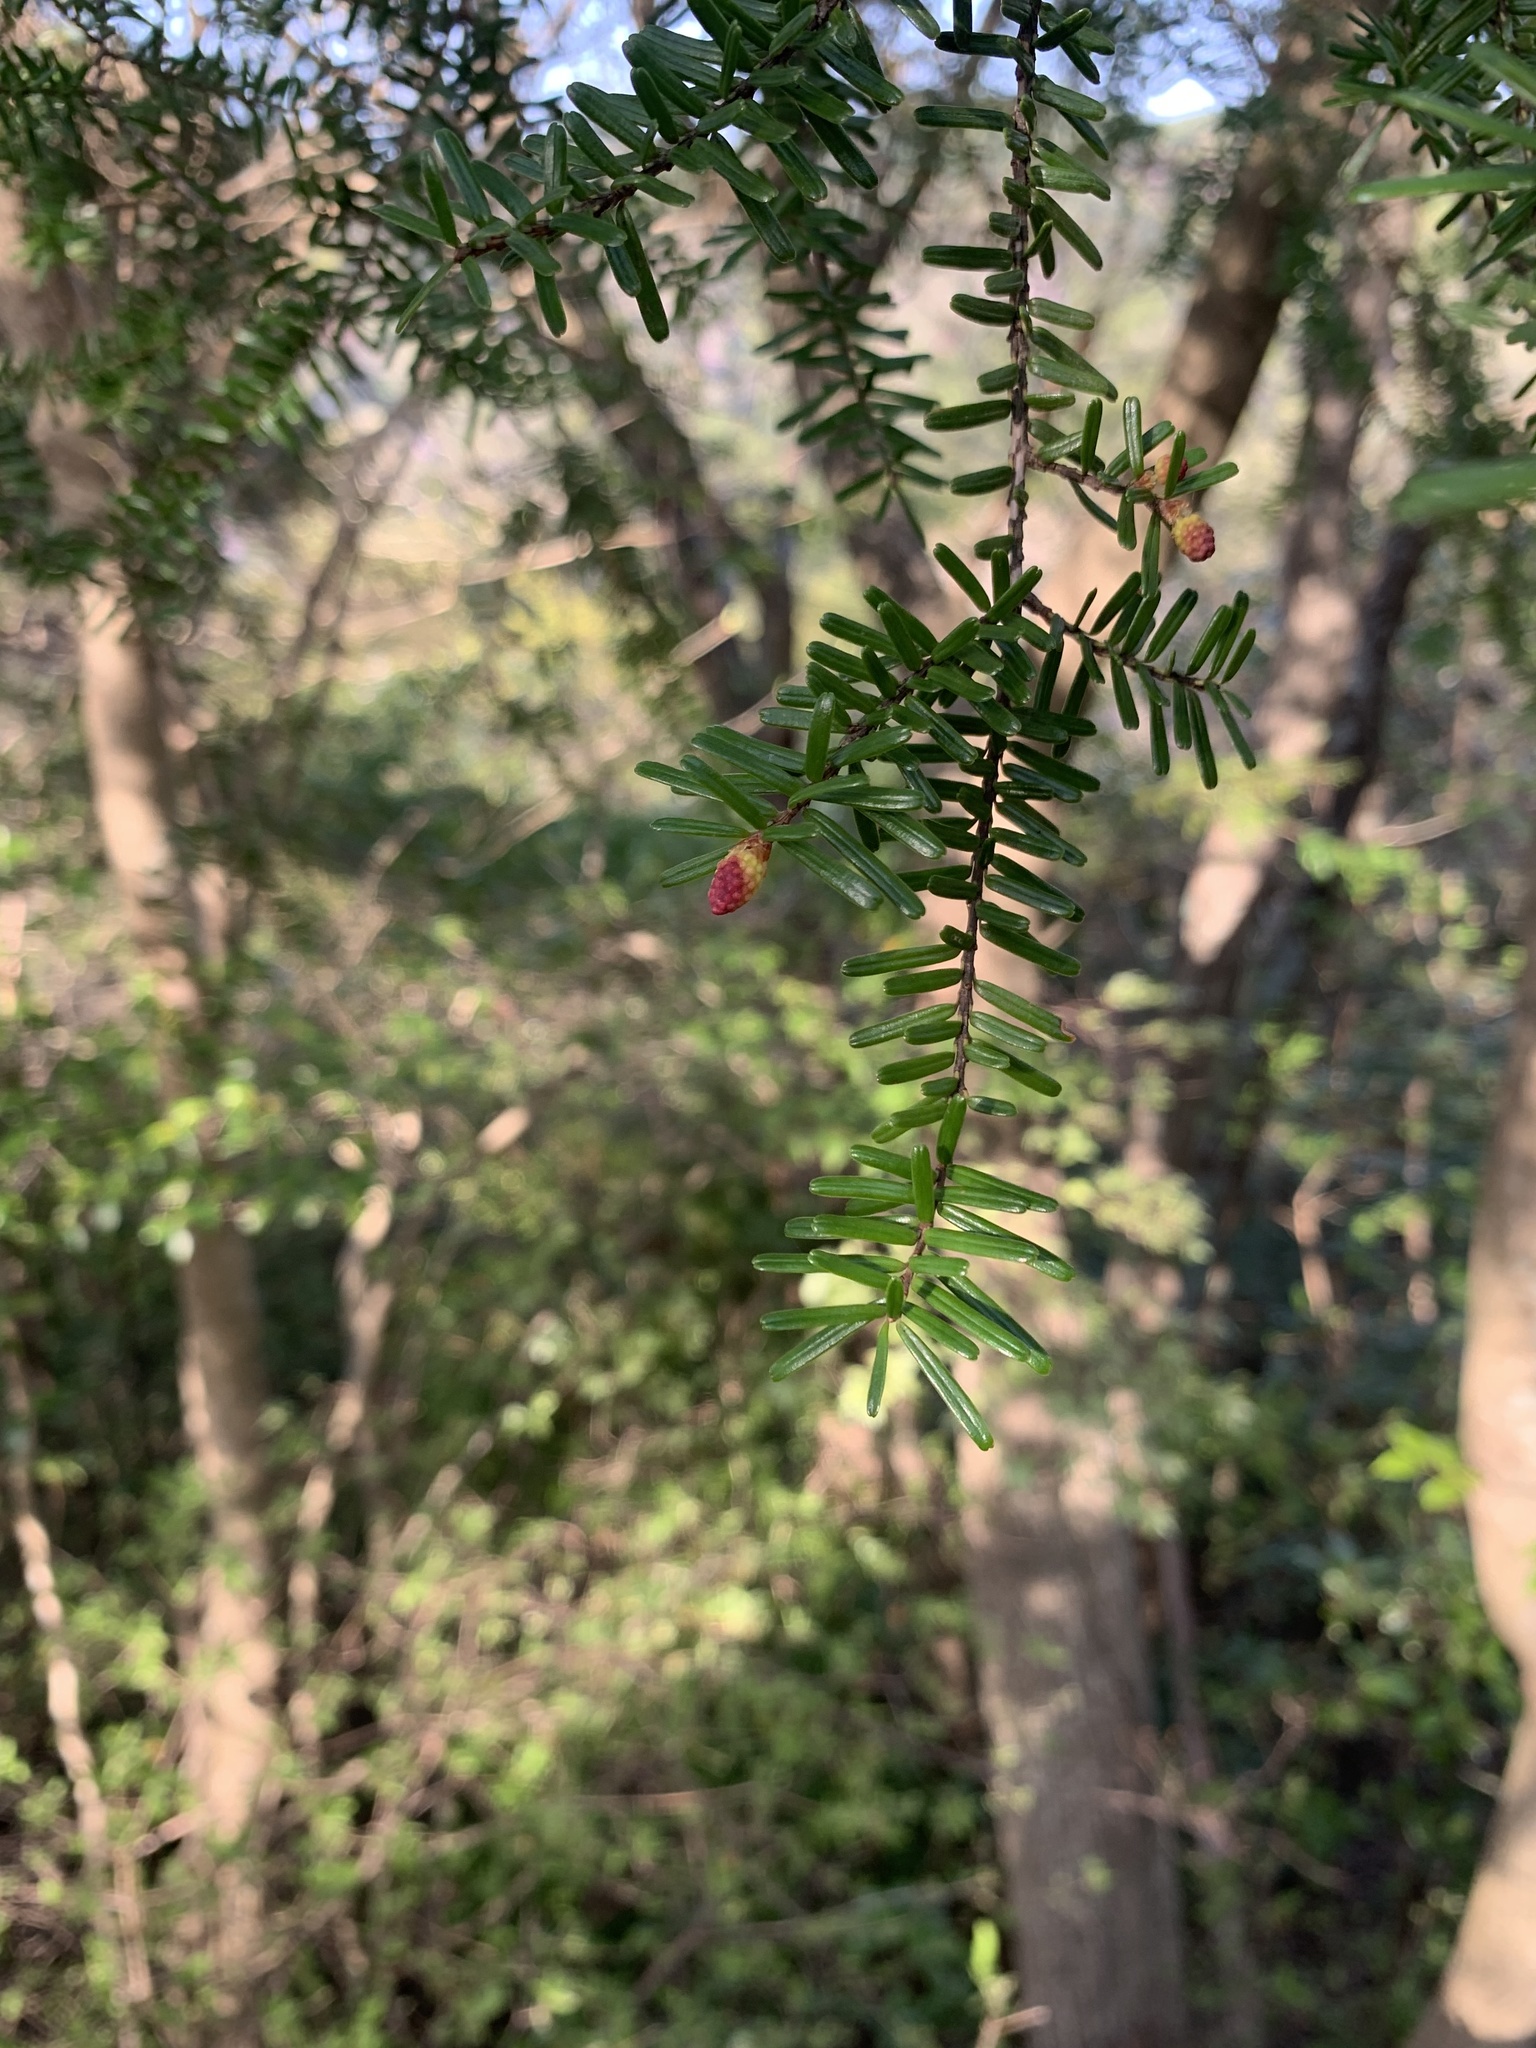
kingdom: Plantae
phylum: Tracheophyta
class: Pinopsida
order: Pinales
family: Pinaceae
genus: Tsuga
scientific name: Tsuga sieboldii
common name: Japanese hemlock
